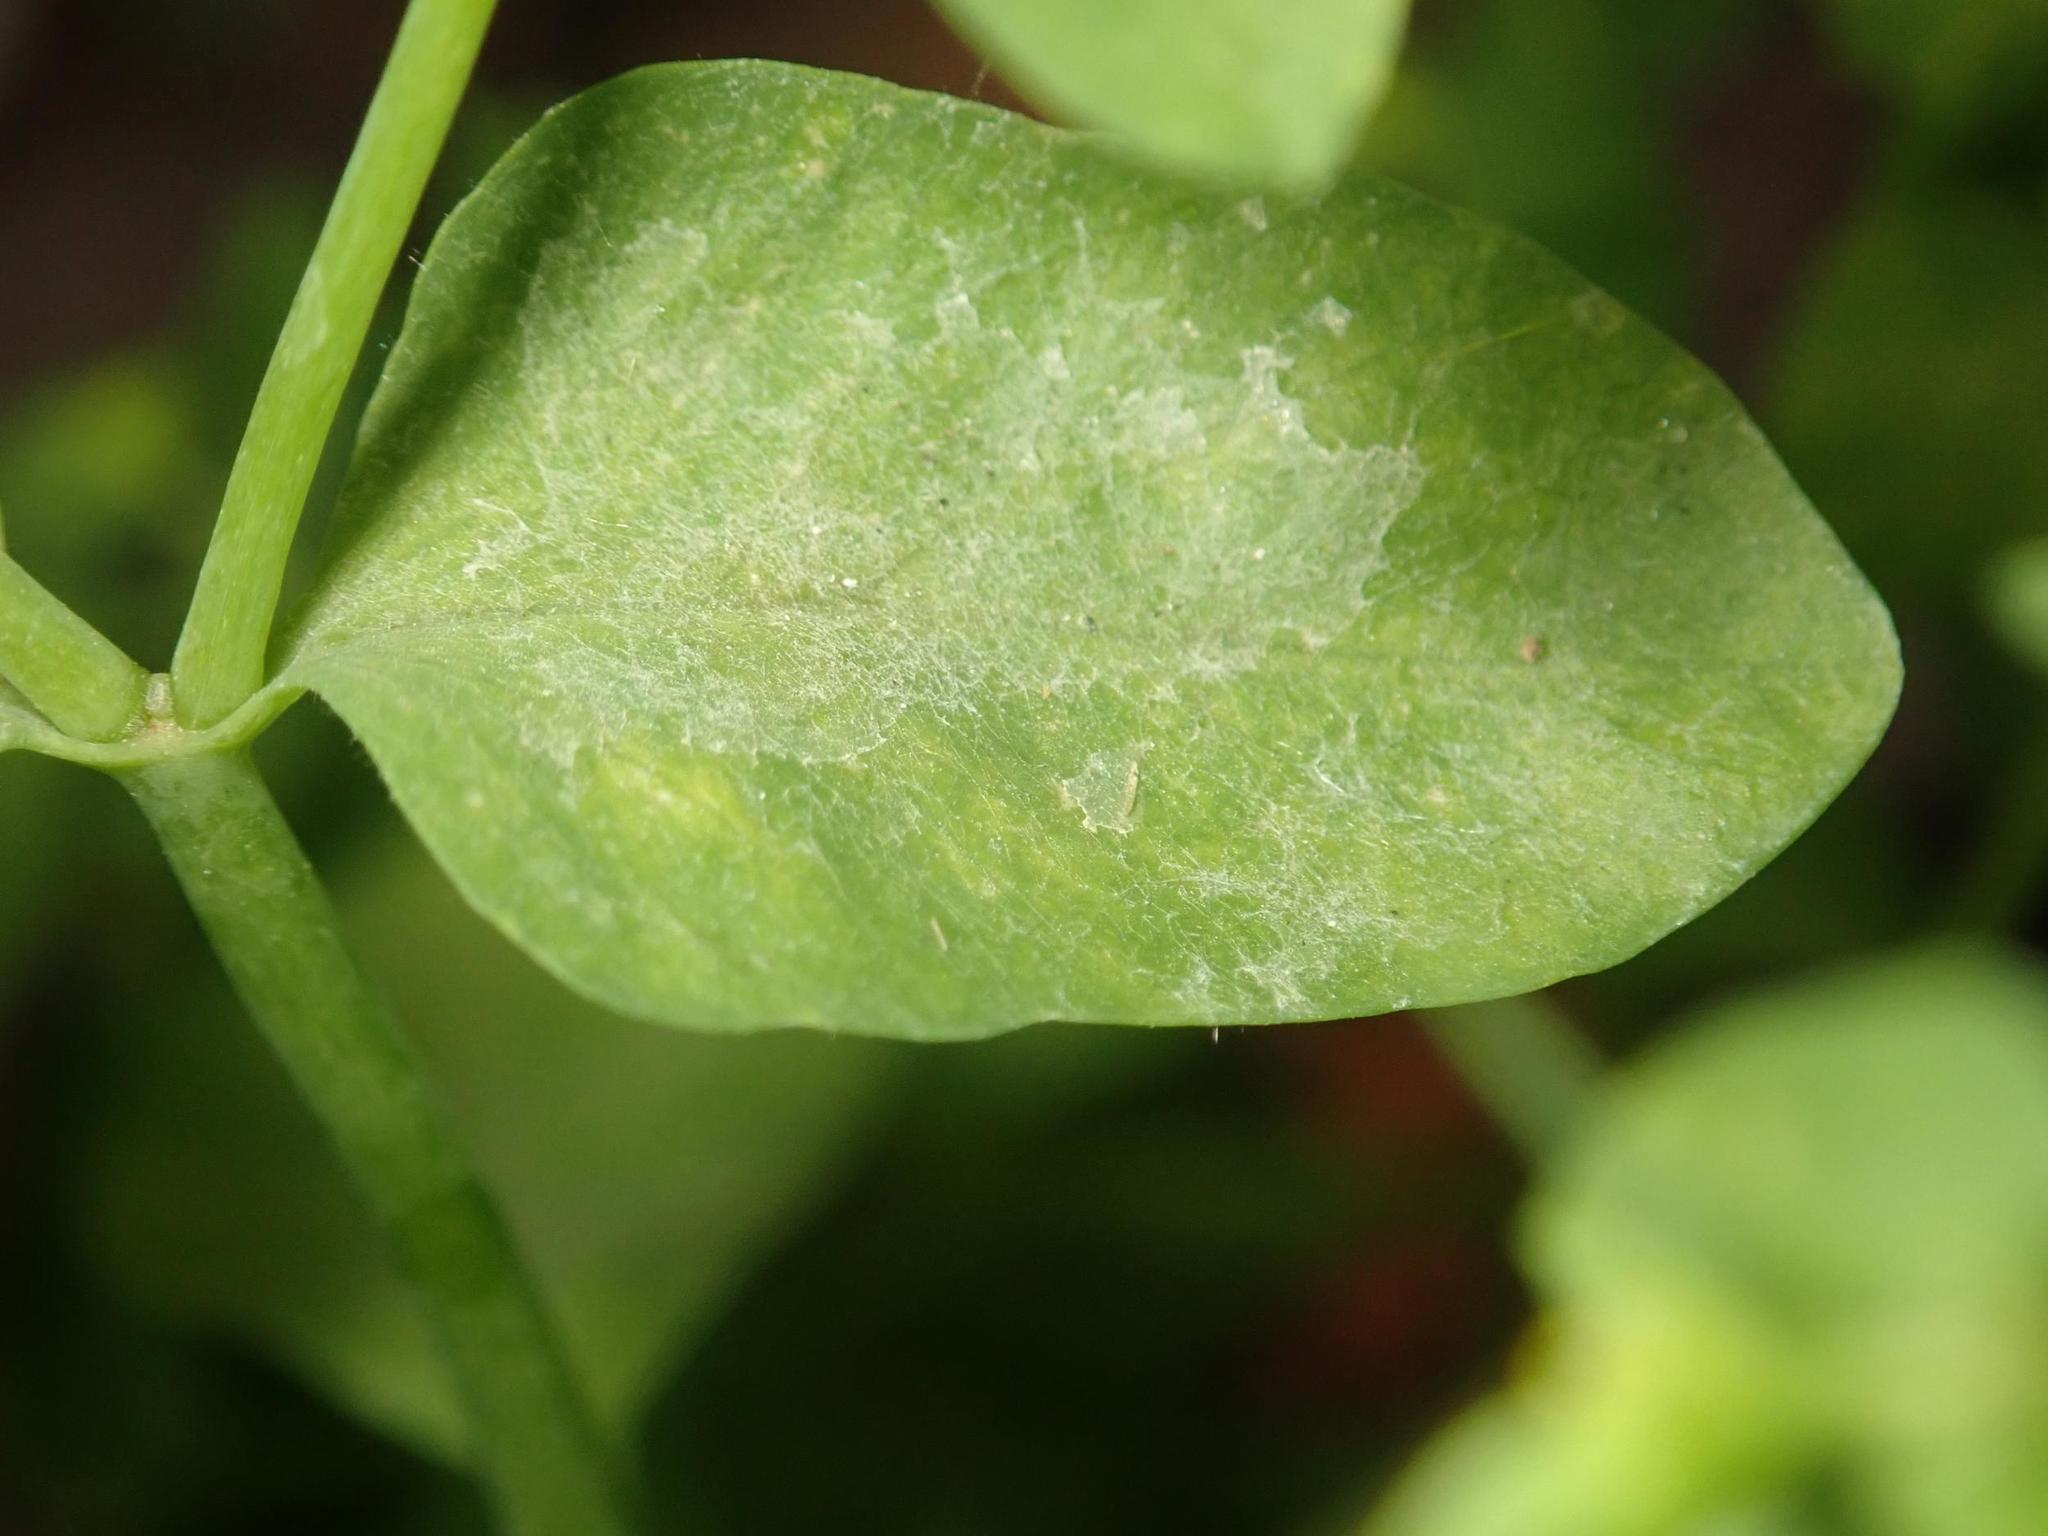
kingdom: Fungi
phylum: Ascomycota
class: Leotiomycetes
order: Helotiales
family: Erysiphaceae
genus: Podosphaera
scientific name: Podosphaera euphorbiae
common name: Eurasian poinsettia powdery mildew
